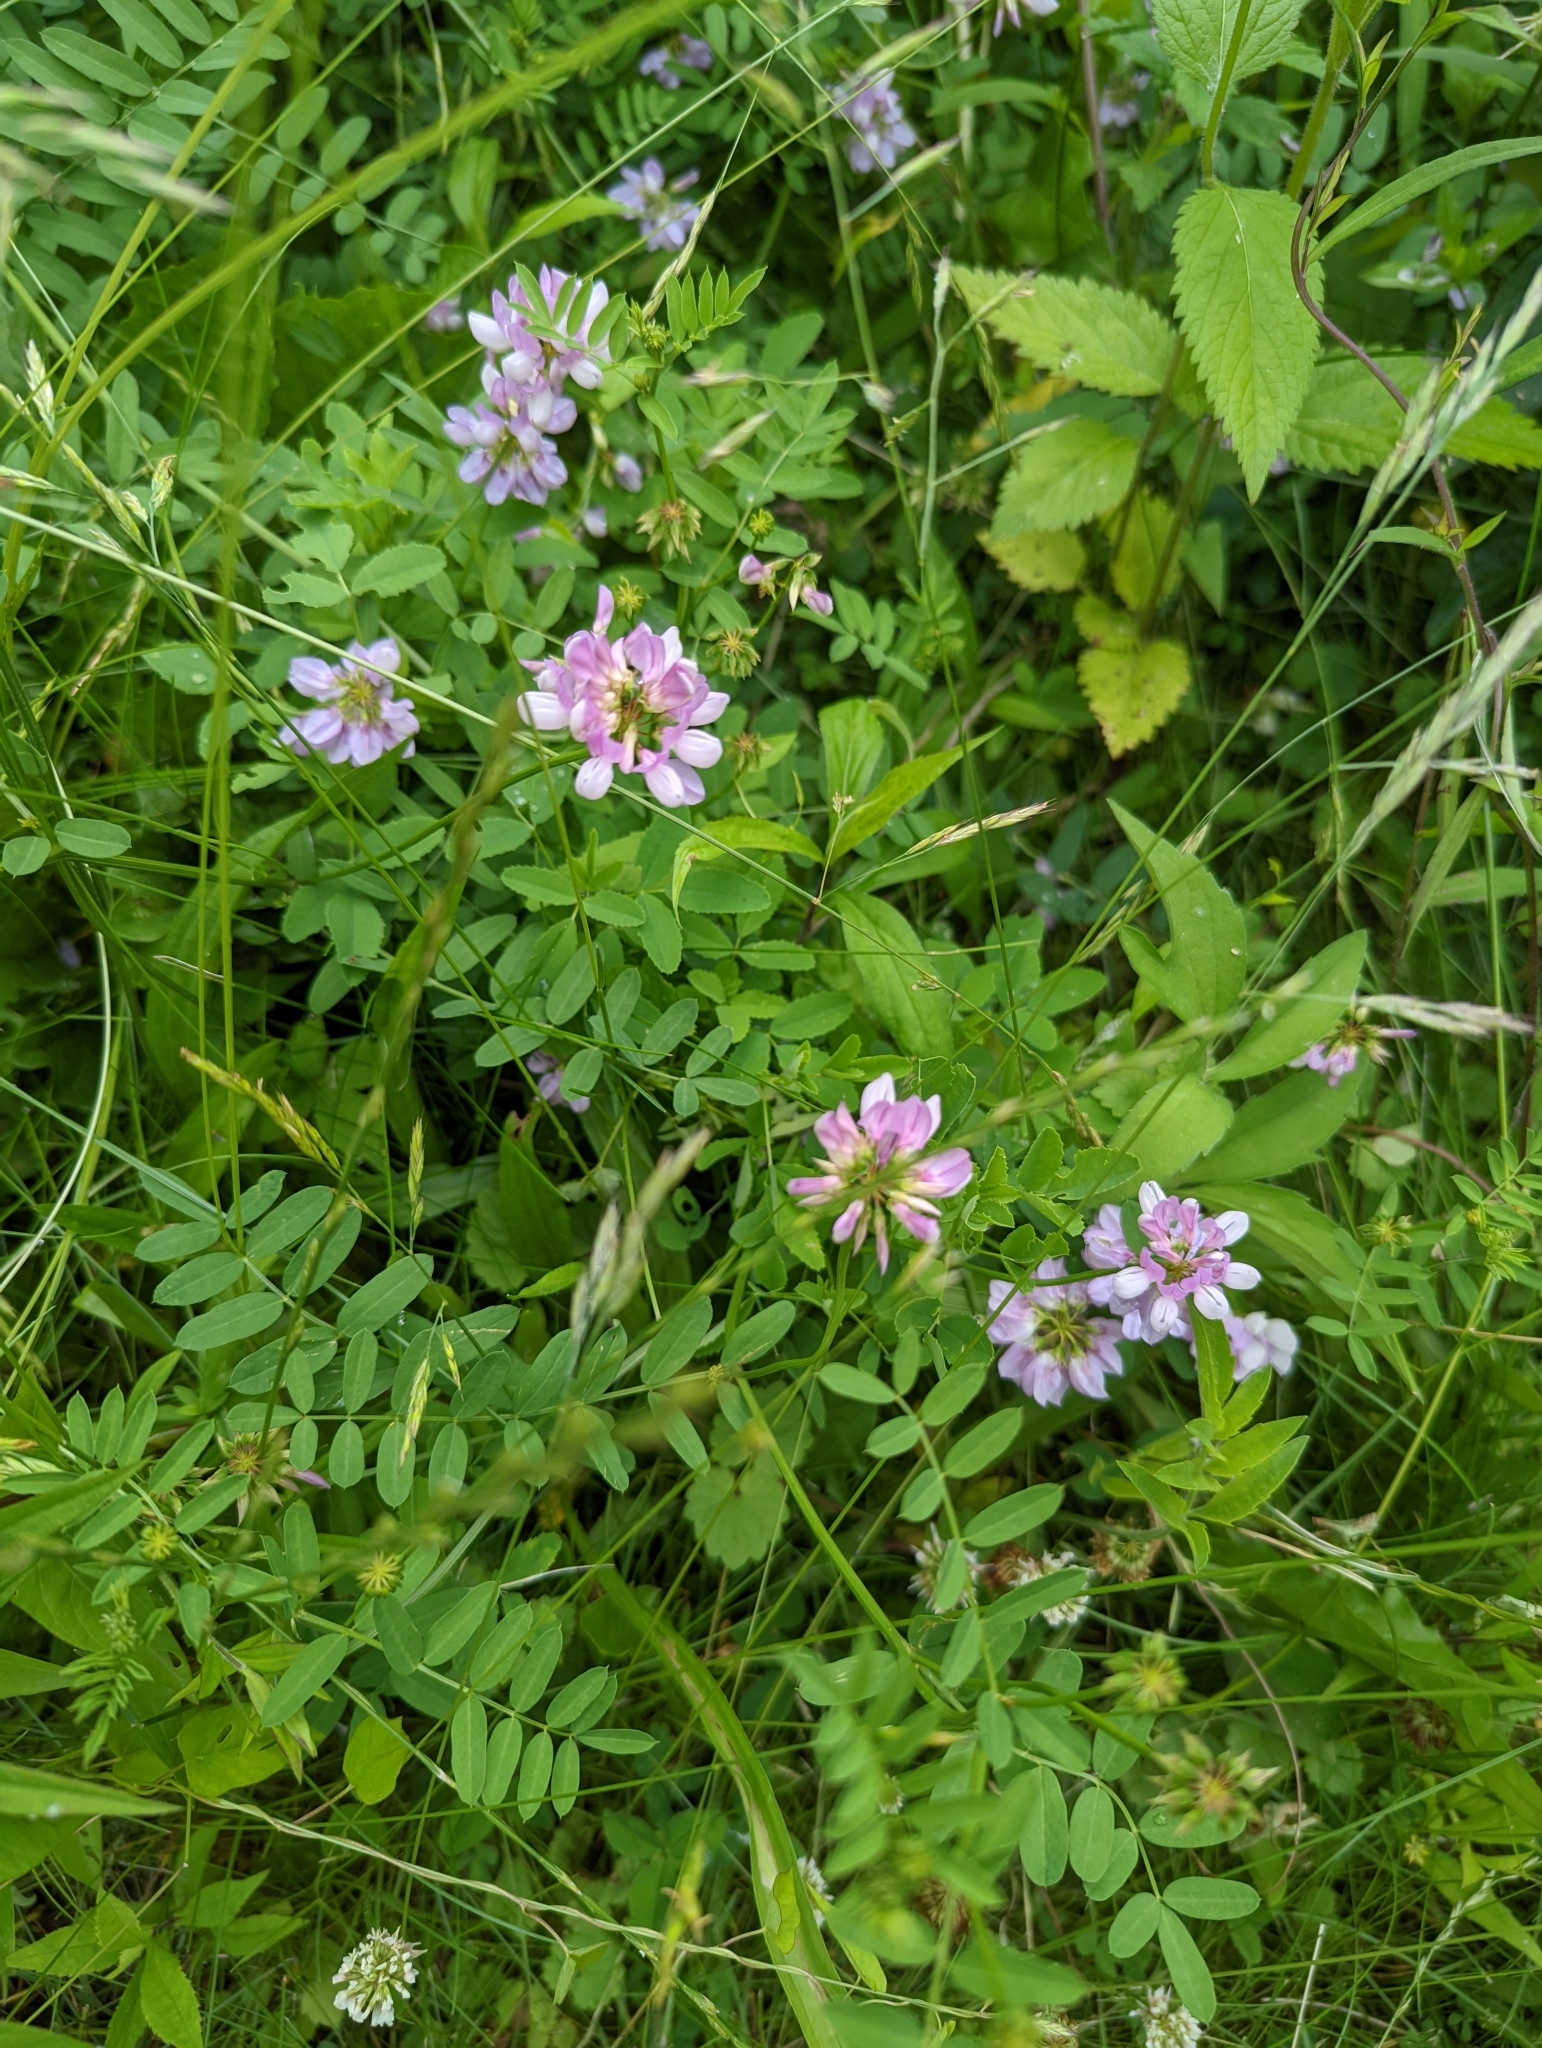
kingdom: Plantae
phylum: Tracheophyta
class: Magnoliopsida
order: Fabales
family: Fabaceae
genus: Coronilla
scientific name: Coronilla varia
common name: Crownvetch
